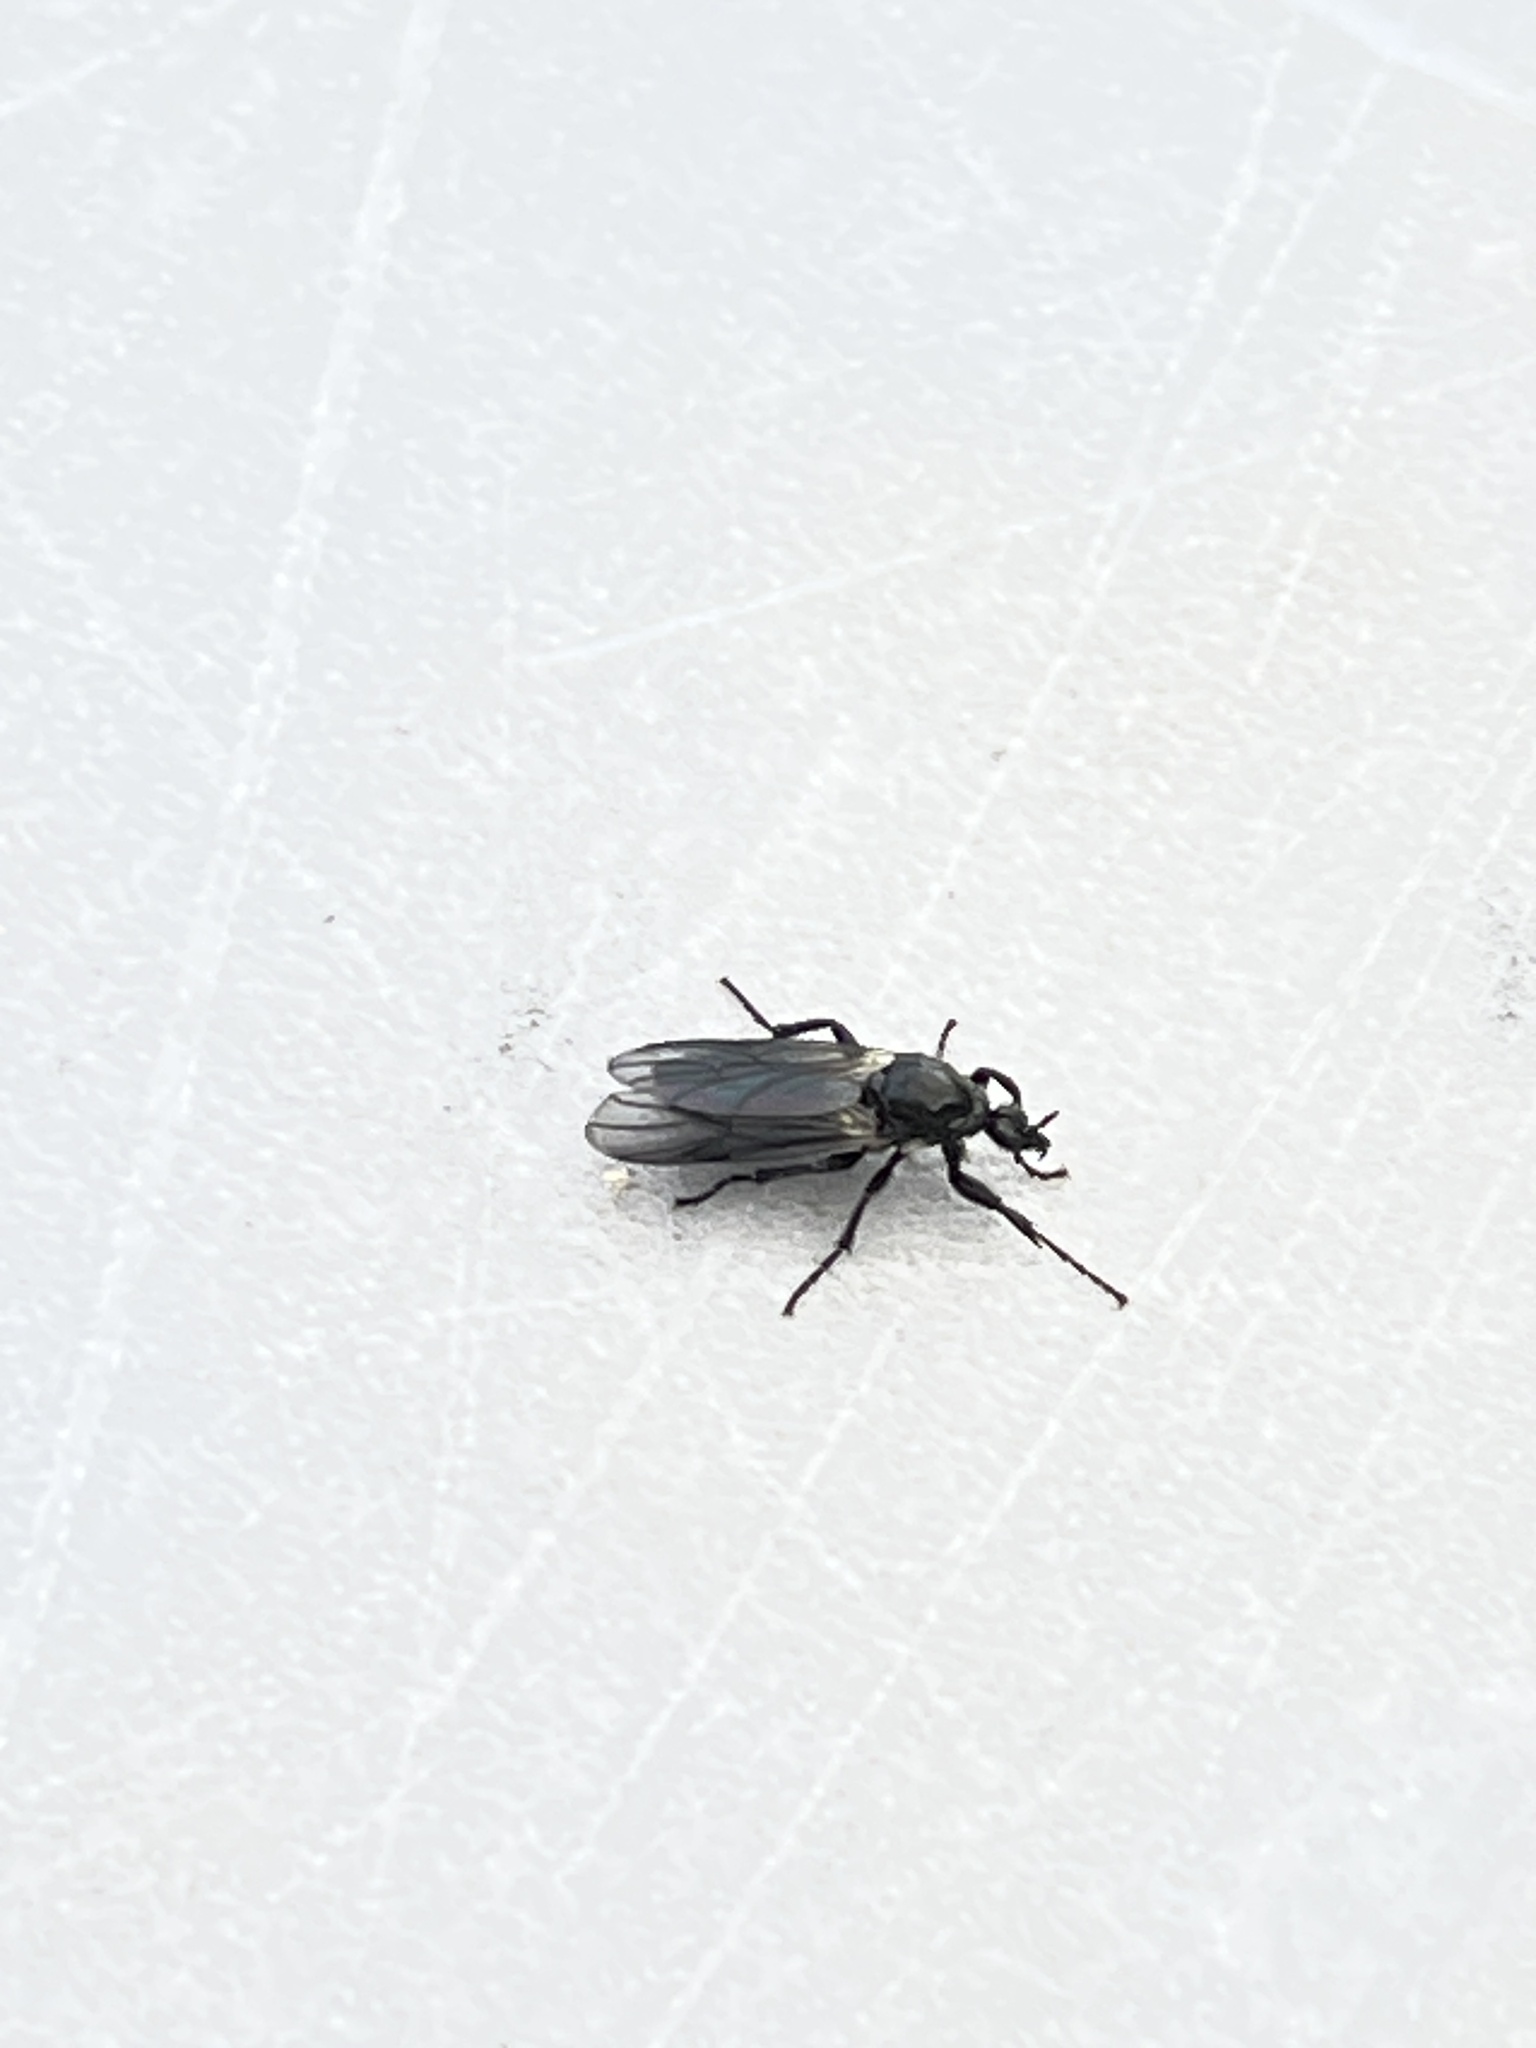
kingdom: Animalia
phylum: Arthropoda
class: Insecta
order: Diptera
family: Bibionidae
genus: Bibio
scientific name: Bibio albipennis
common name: White-winged march fly
